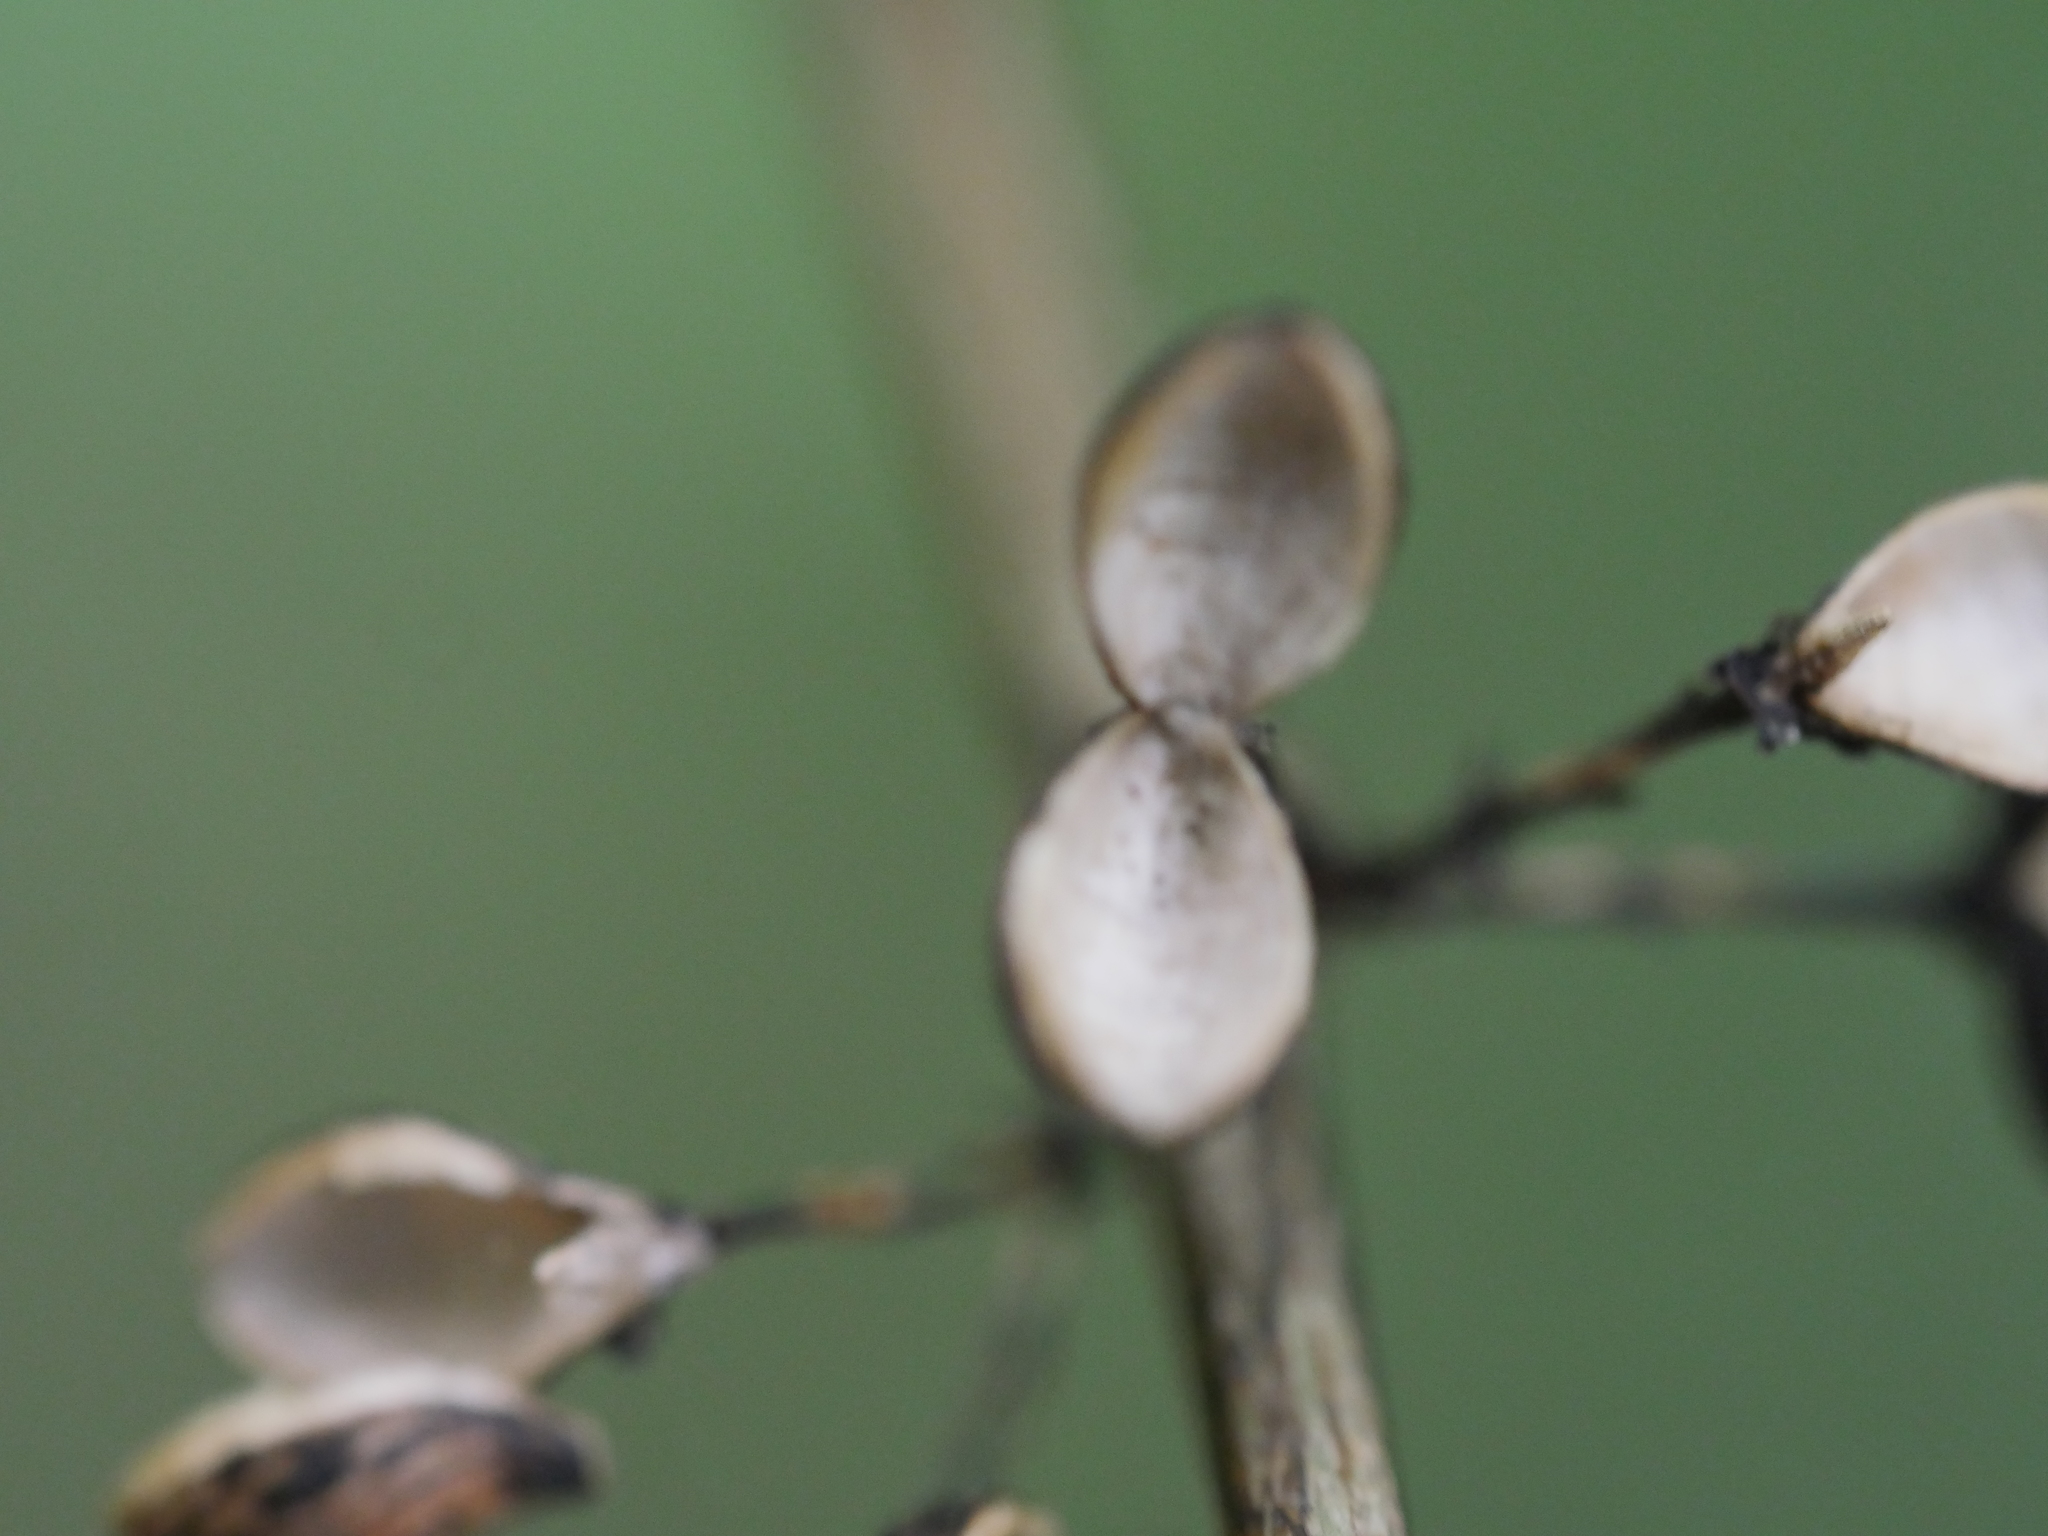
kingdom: Plantae
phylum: Tracheophyta
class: Magnoliopsida
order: Gentianales
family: Loganiaceae
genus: Geniostoma
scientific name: Geniostoma ligustrifolium
